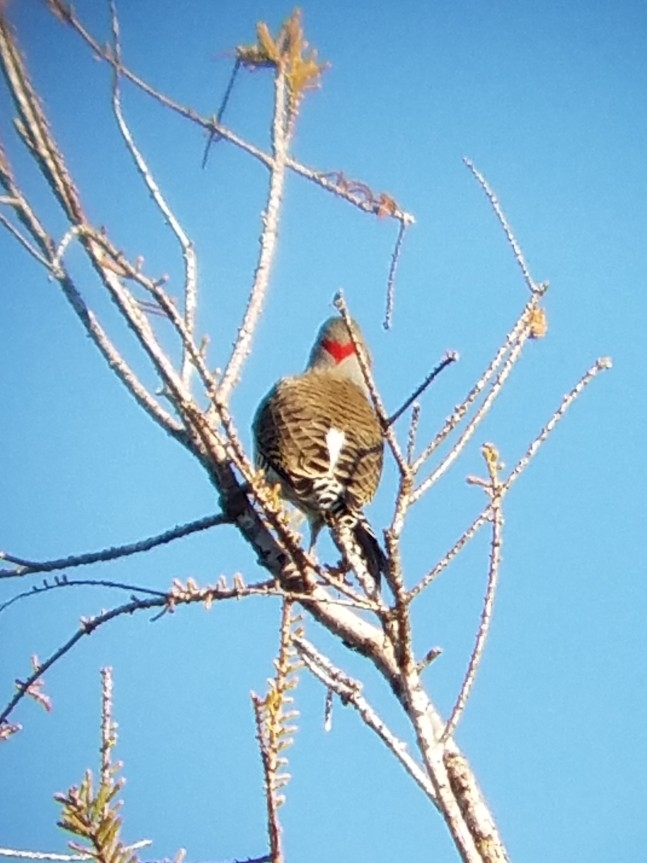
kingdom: Animalia
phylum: Chordata
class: Aves
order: Piciformes
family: Picidae
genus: Colaptes
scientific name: Colaptes auratus
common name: Northern flicker
